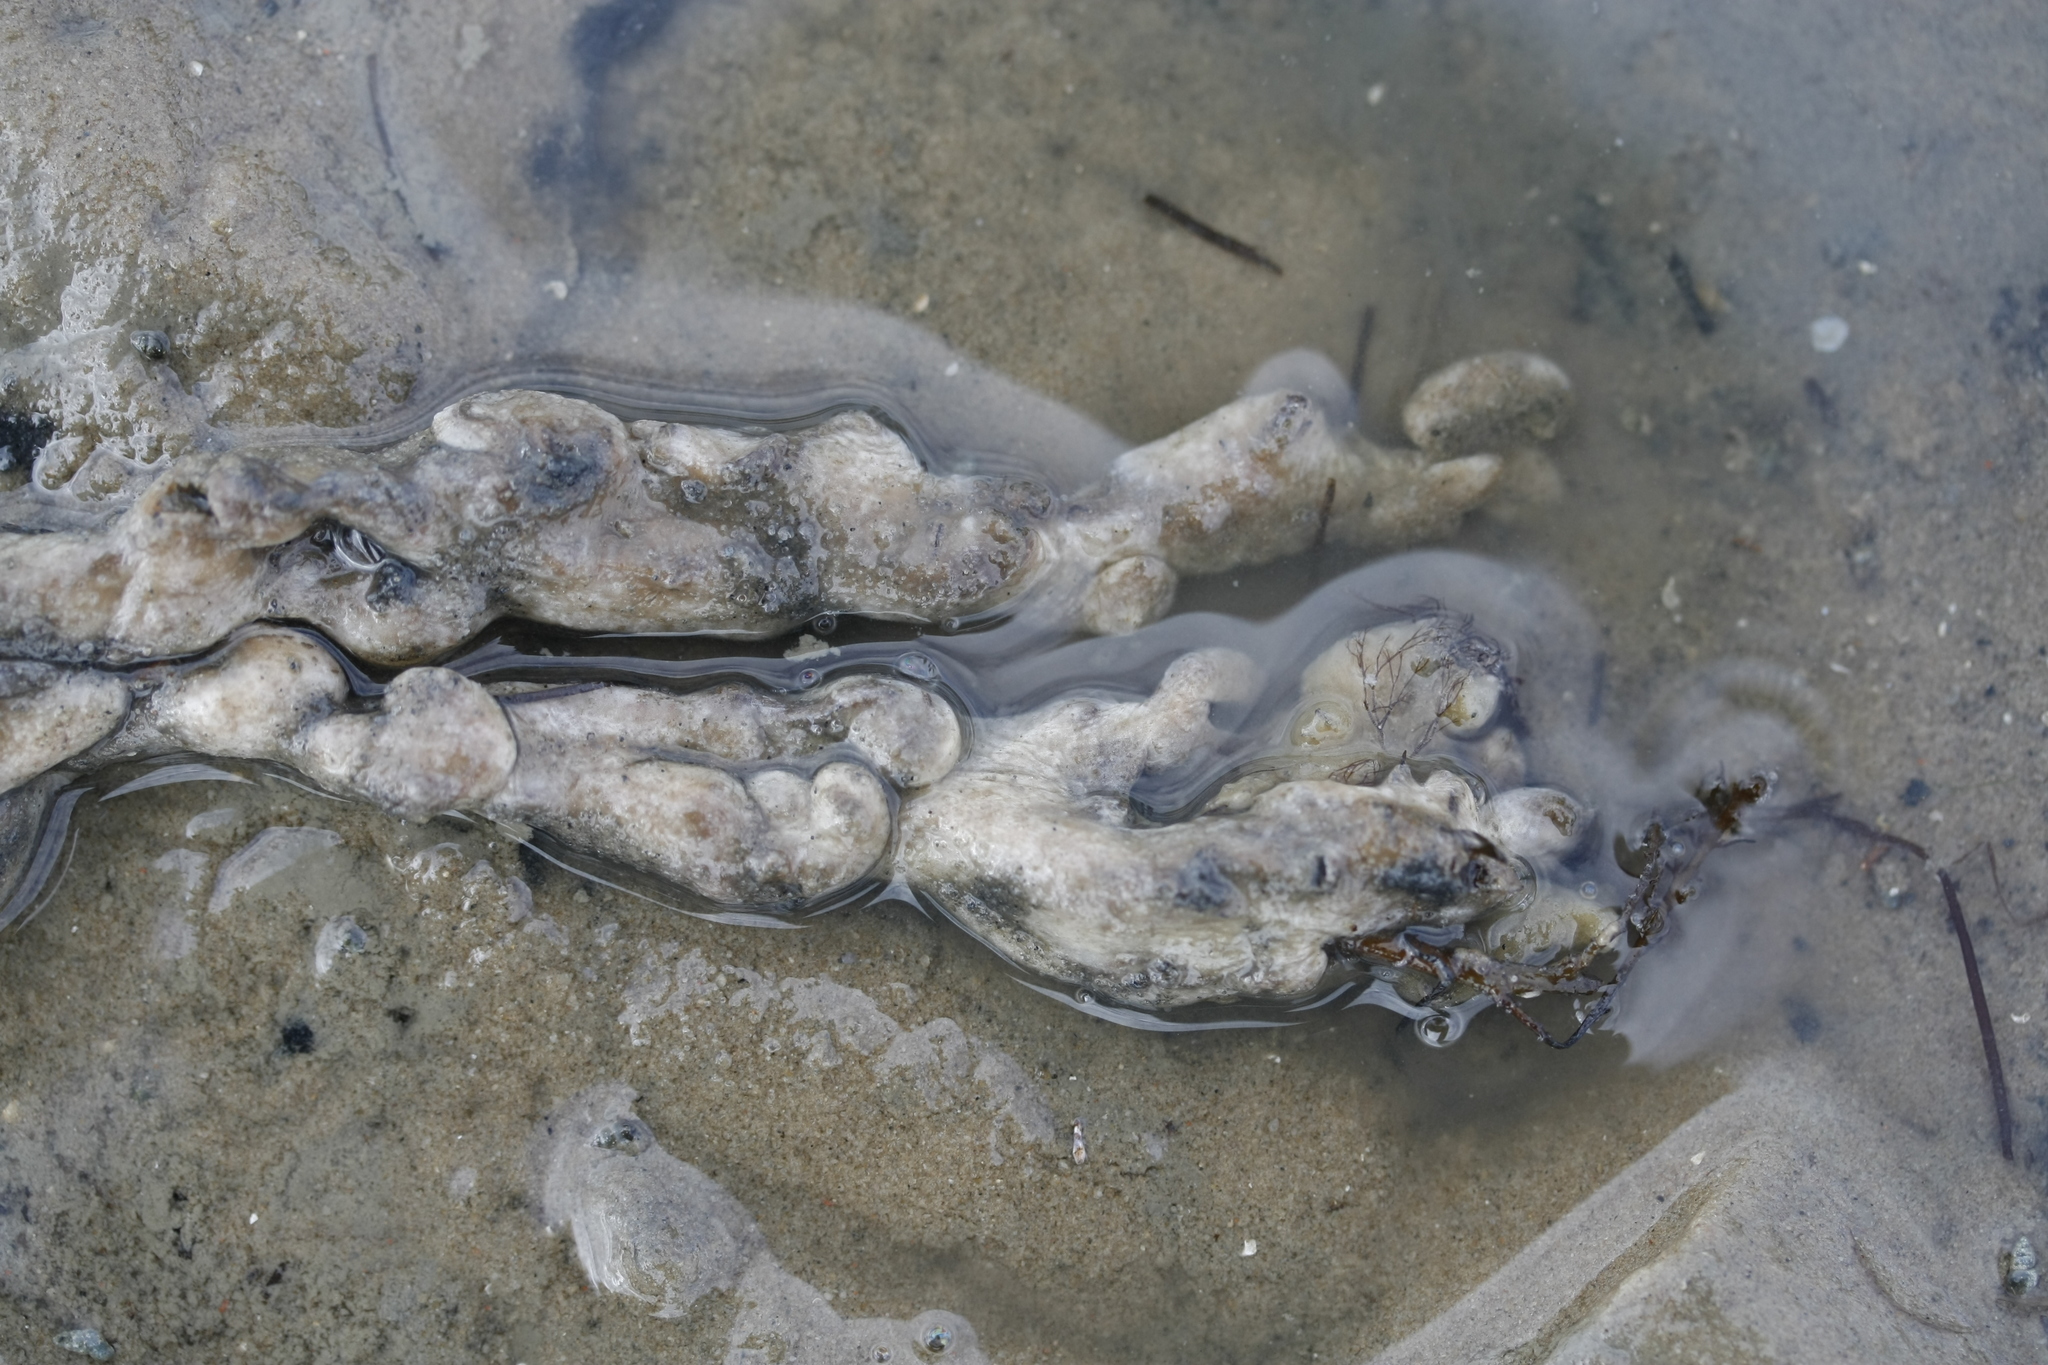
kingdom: Animalia
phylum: Cnidaria
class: Anthozoa
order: Malacalcyonacea
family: Alcyoniidae
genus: Alcyonium
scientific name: Alcyonium digitatum
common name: Dead man's fingers
